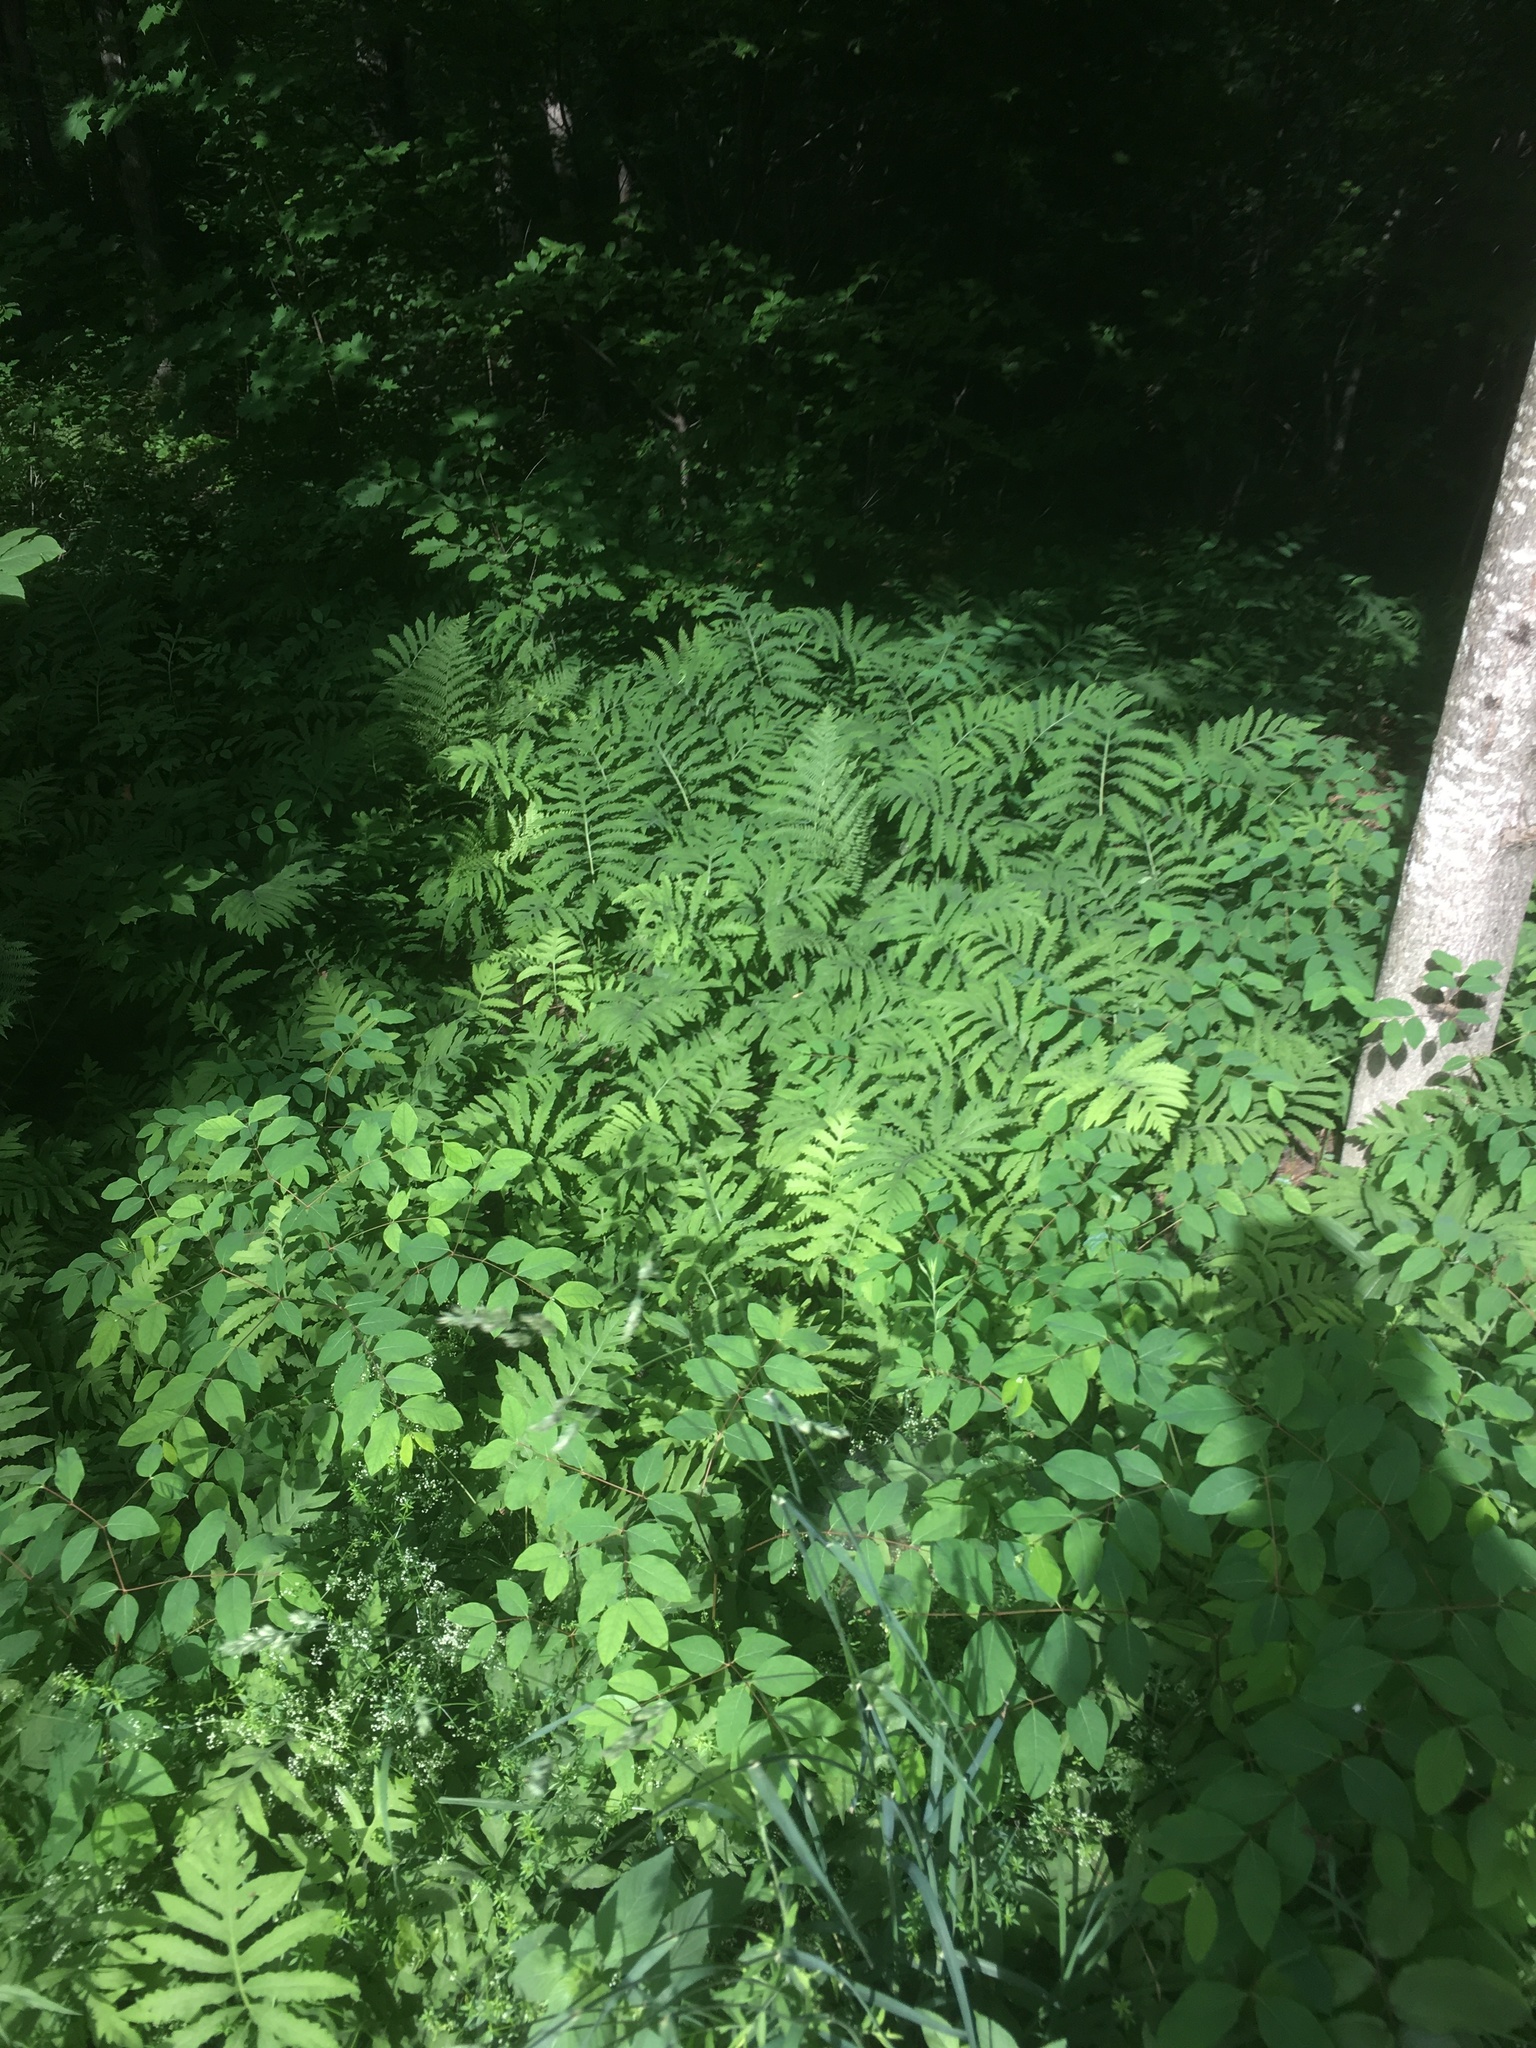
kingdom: Plantae
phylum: Tracheophyta
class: Polypodiopsida
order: Polypodiales
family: Onocleaceae
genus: Onoclea
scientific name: Onoclea sensibilis
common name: Sensitive fern
